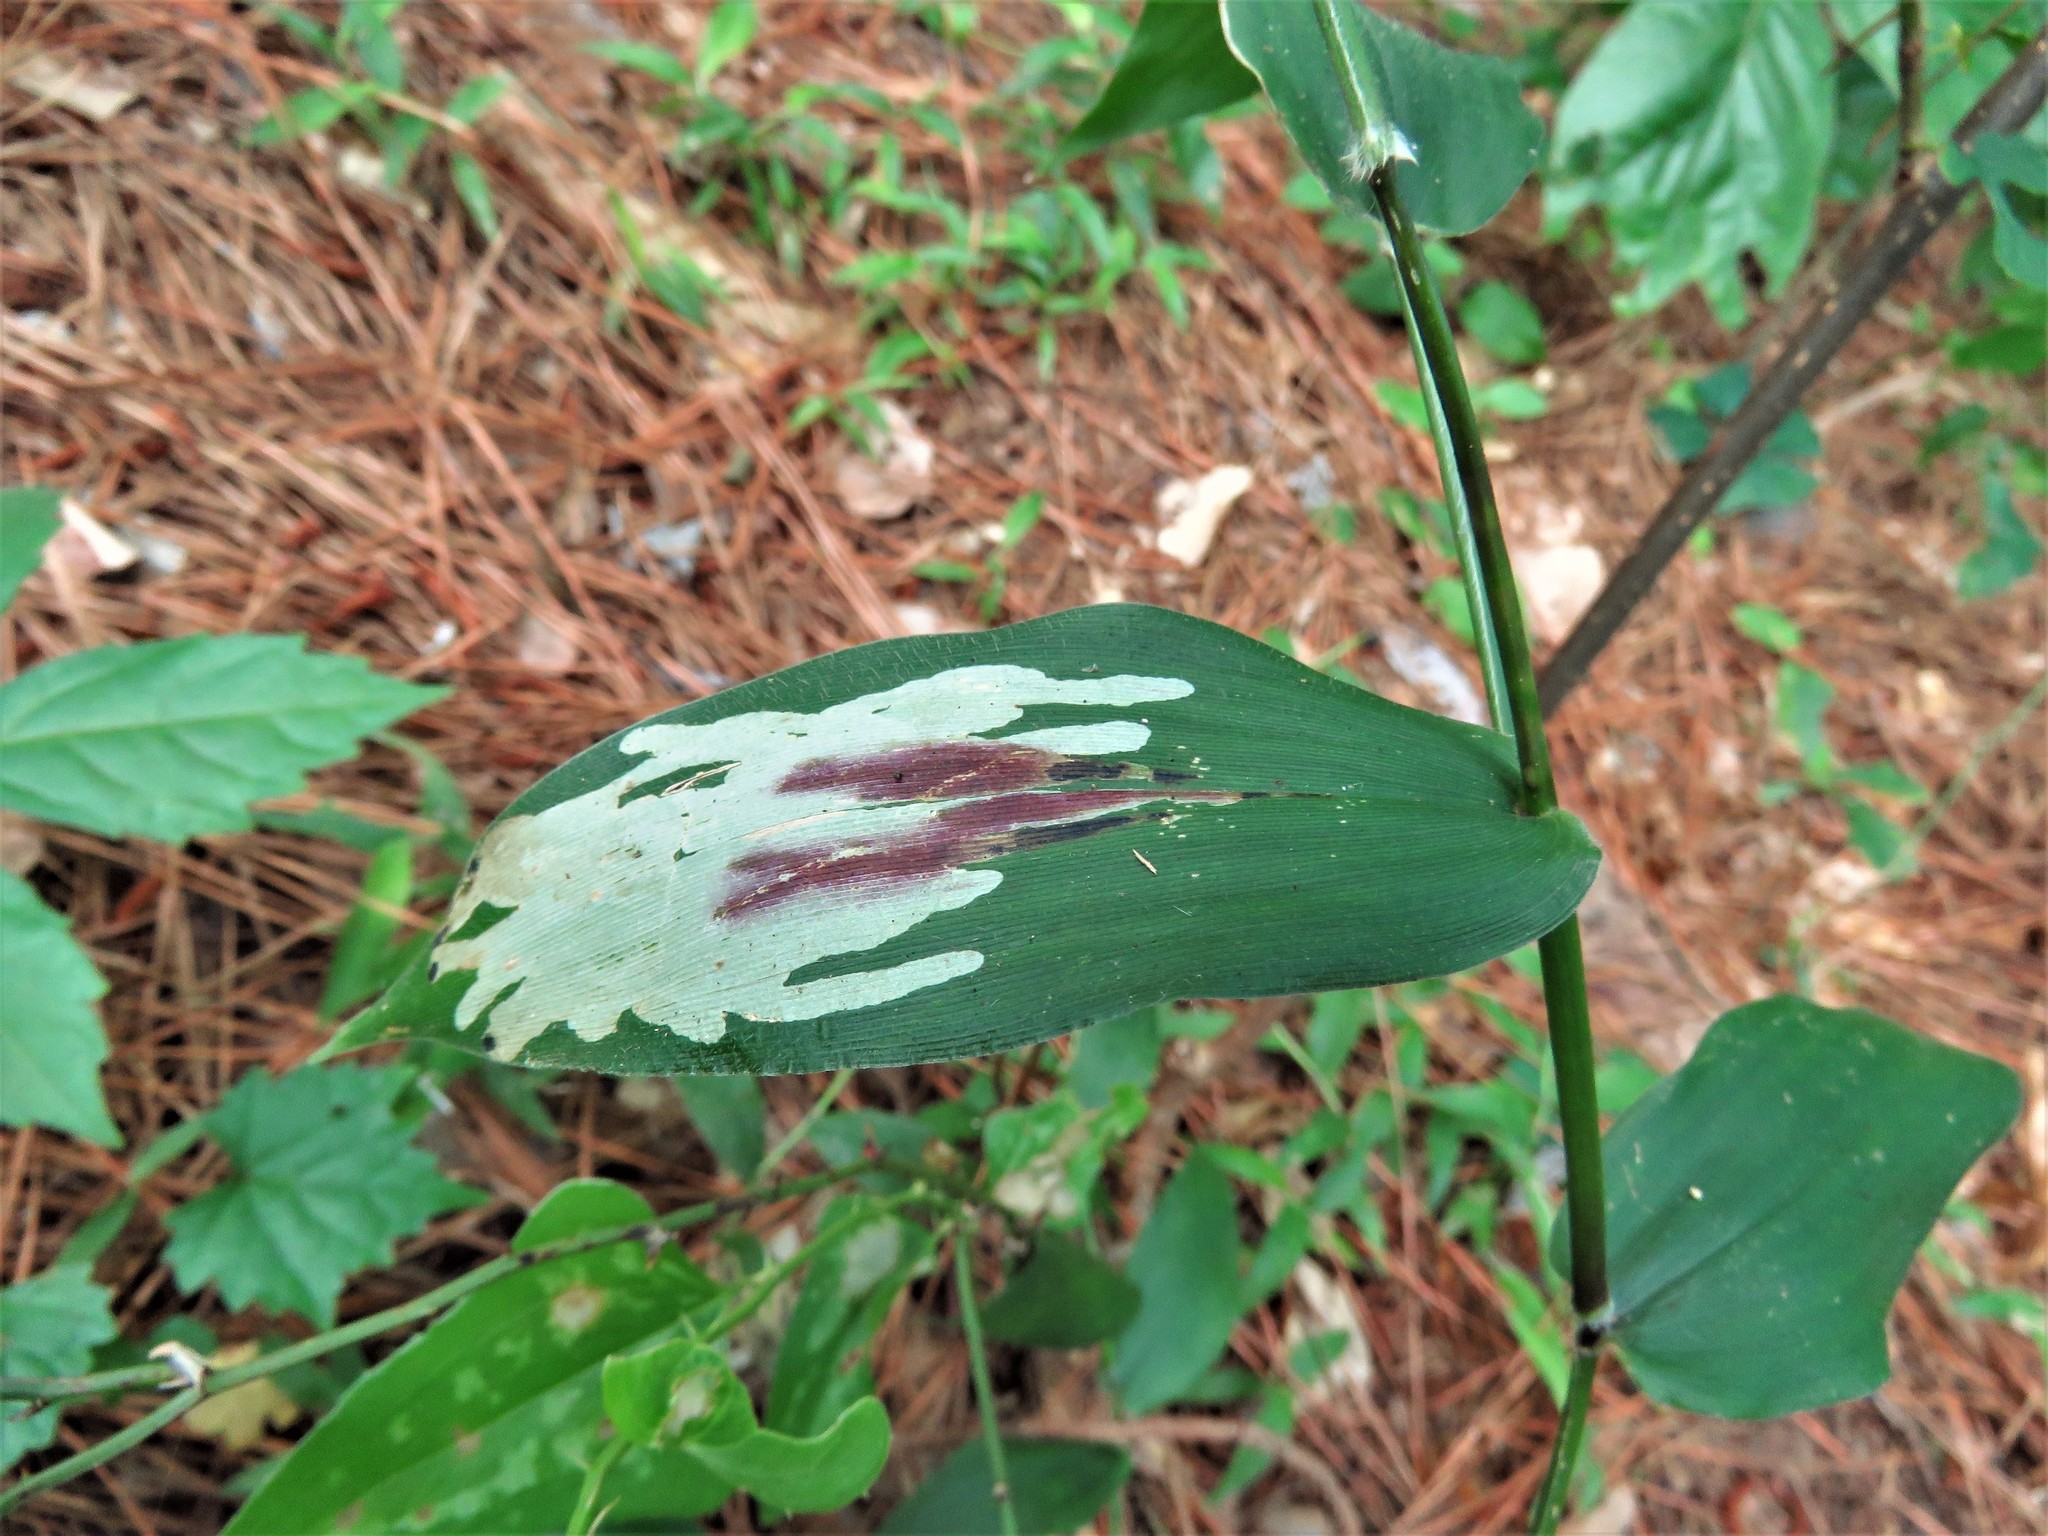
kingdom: Animalia
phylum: Arthropoda
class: Insecta
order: Diptera
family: Agromyzidae
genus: Cerodontha
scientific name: Cerodontha angulata
